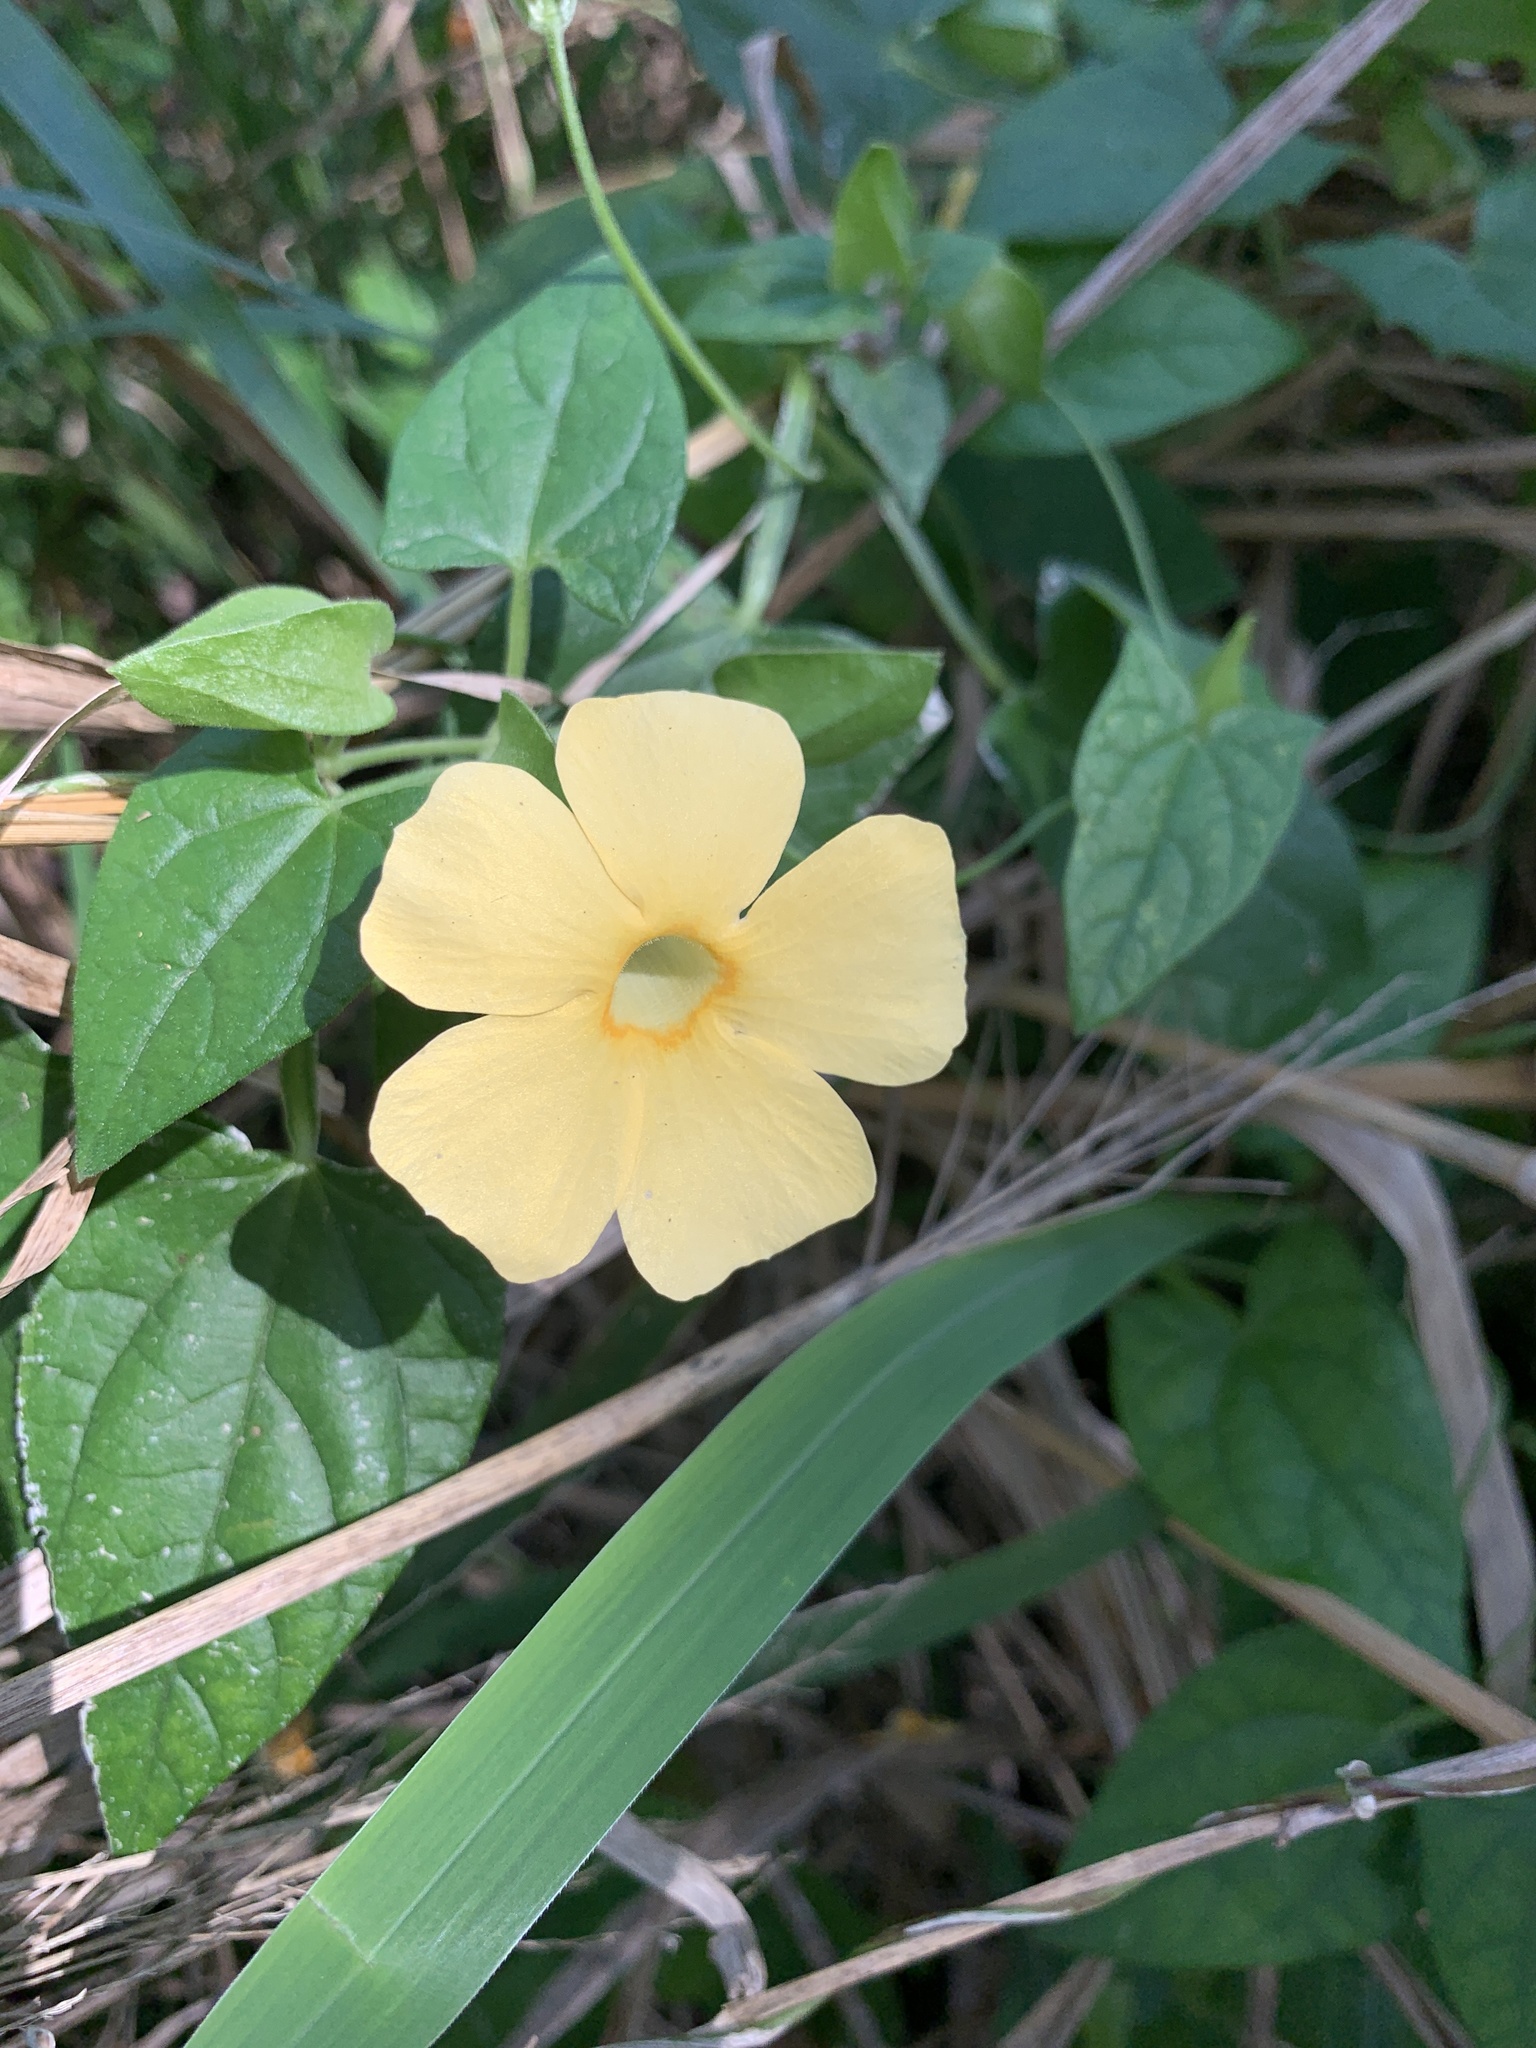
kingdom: Plantae
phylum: Tracheophyta
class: Magnoliopsida
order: Lamiales
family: Acanthaceae
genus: Thunbergia
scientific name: Thunbergia alata
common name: Blackeyed susan vine
